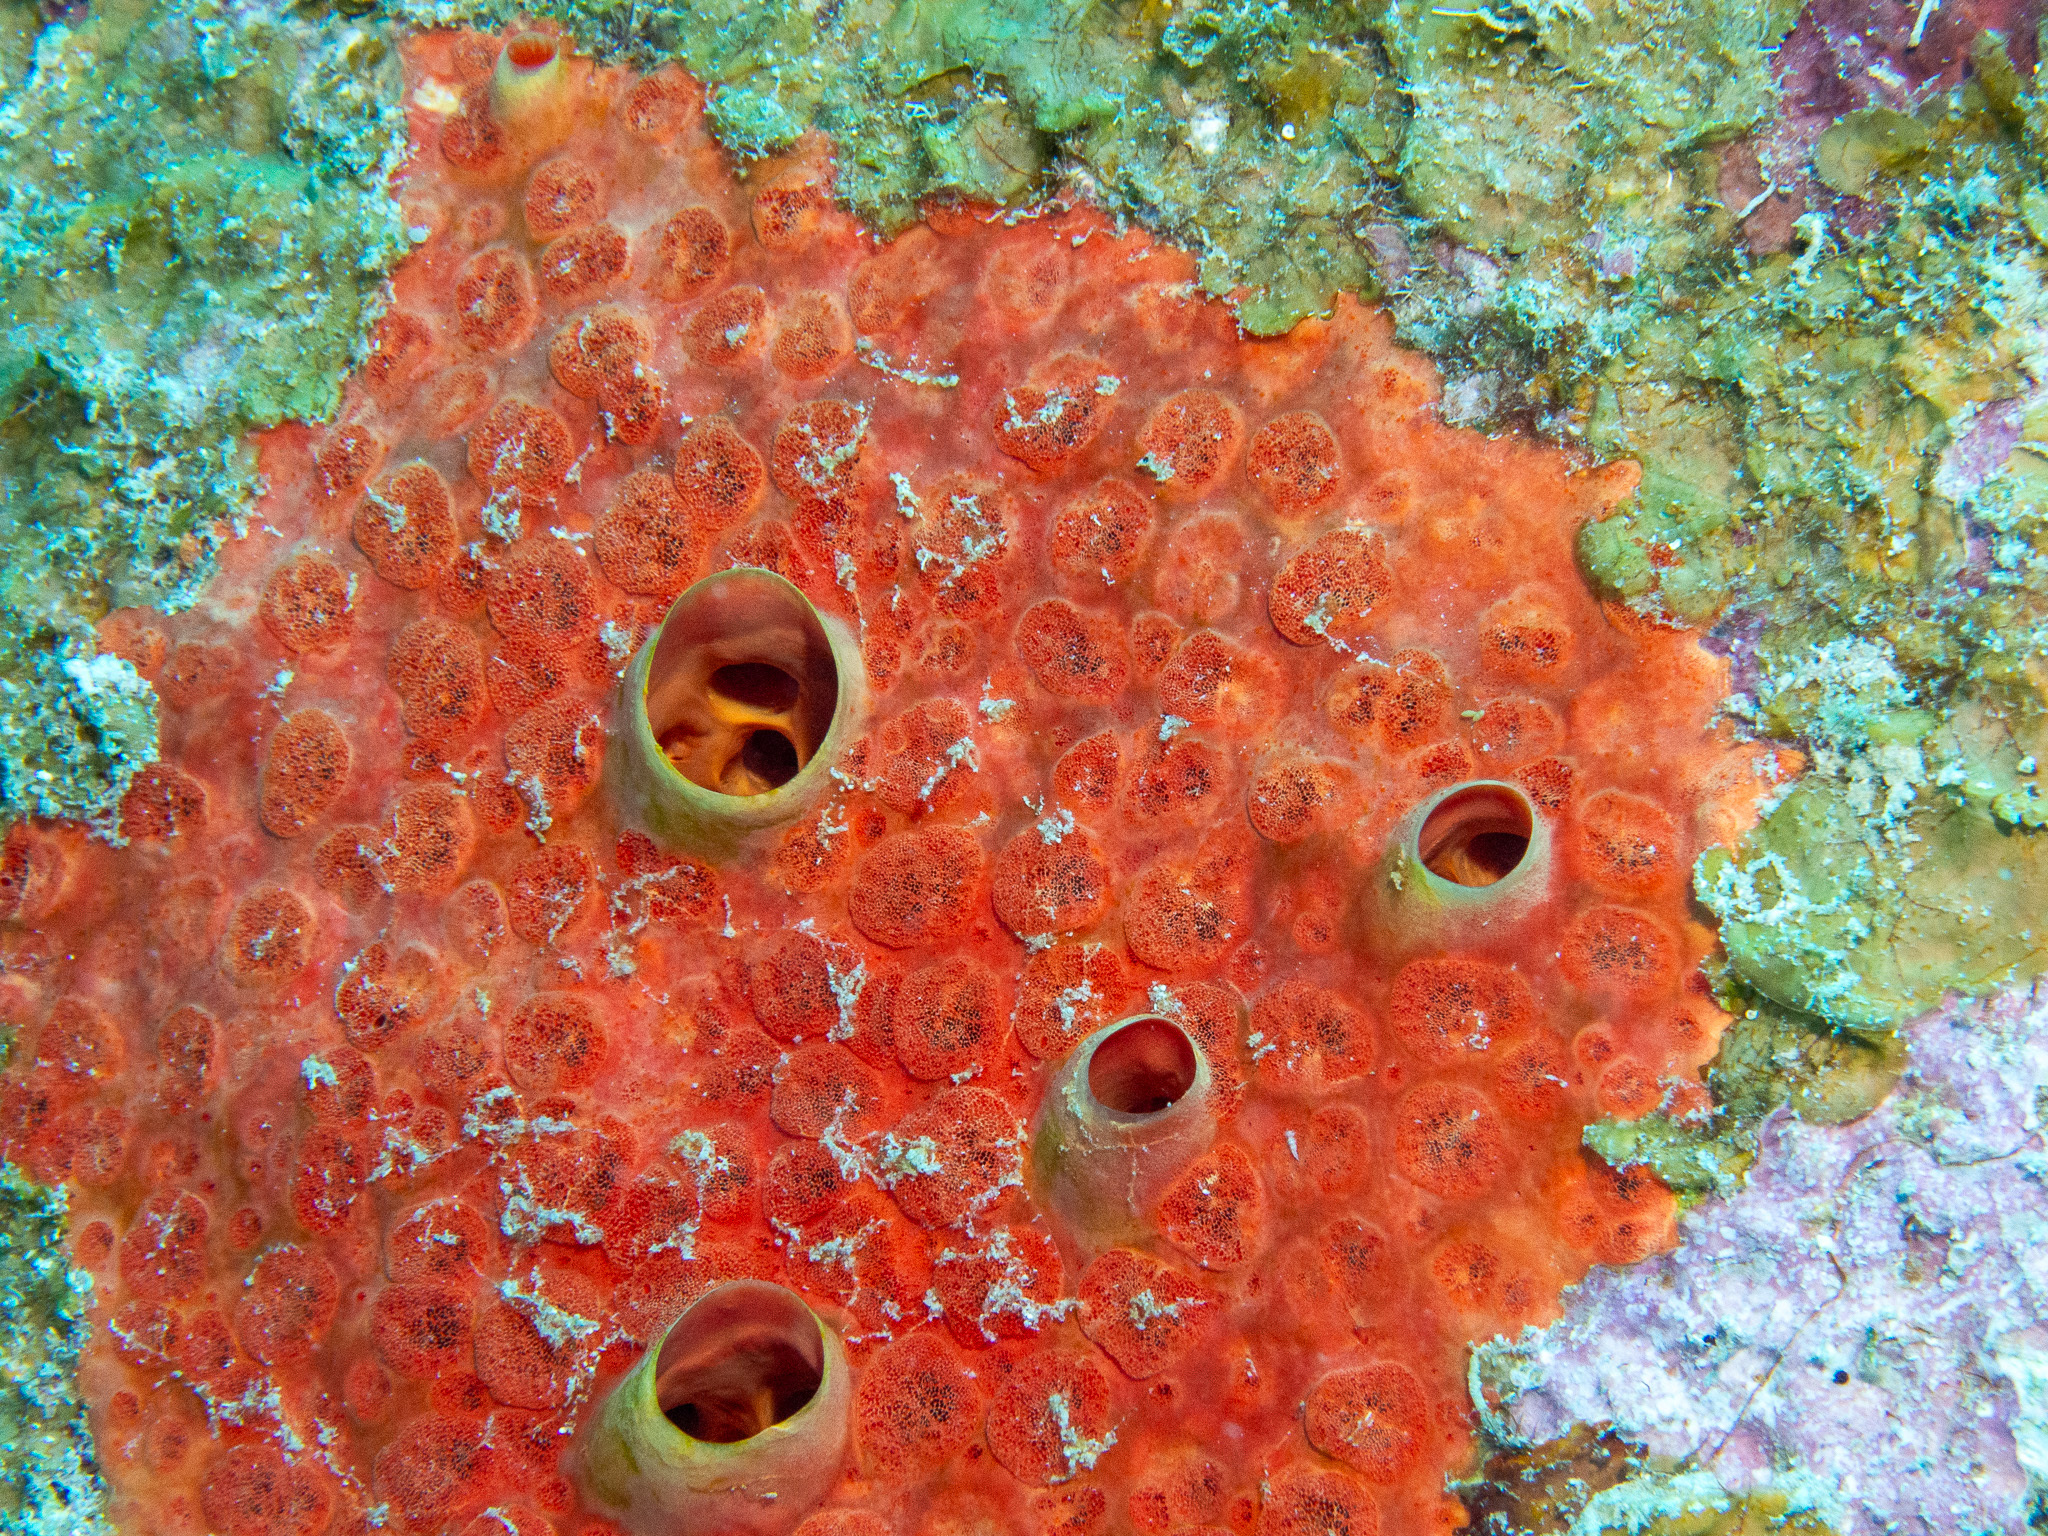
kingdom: Animalia
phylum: Porifera
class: Demospongiae
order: Clionaida
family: Clionaidae
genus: Cliothosa
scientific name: Cliothosa delitrix
